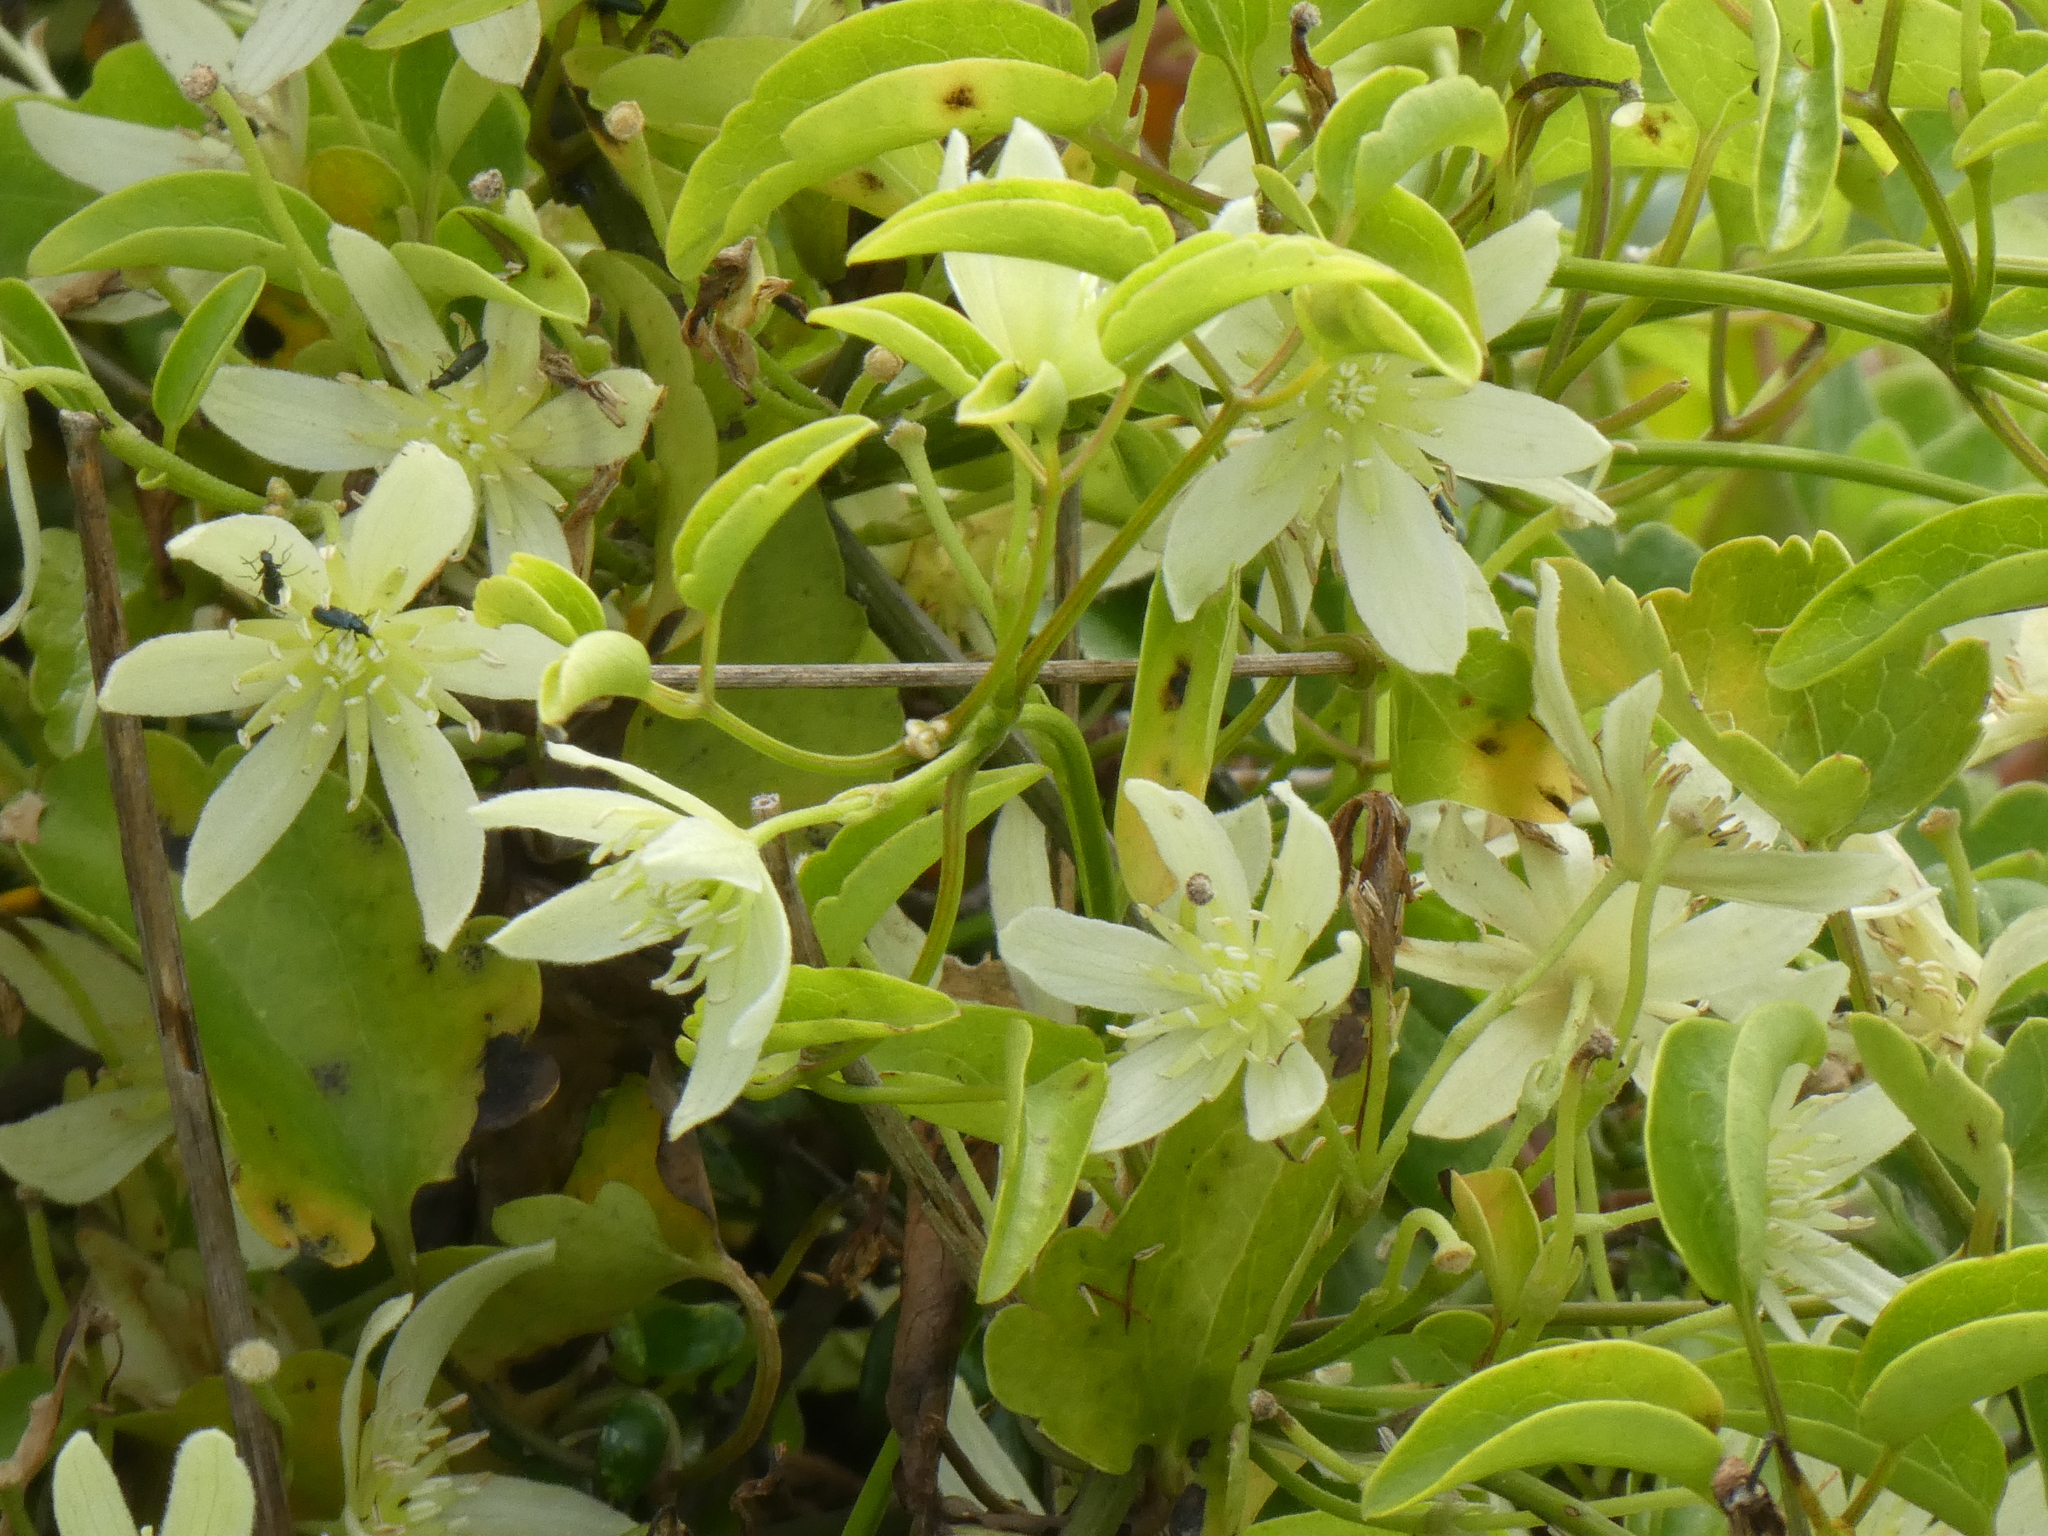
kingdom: Plantae
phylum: Tracheophyta
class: Magnoliopsida
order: Ranunculales
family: Ranunculaceae
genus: Clematis
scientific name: Clematis foetida
